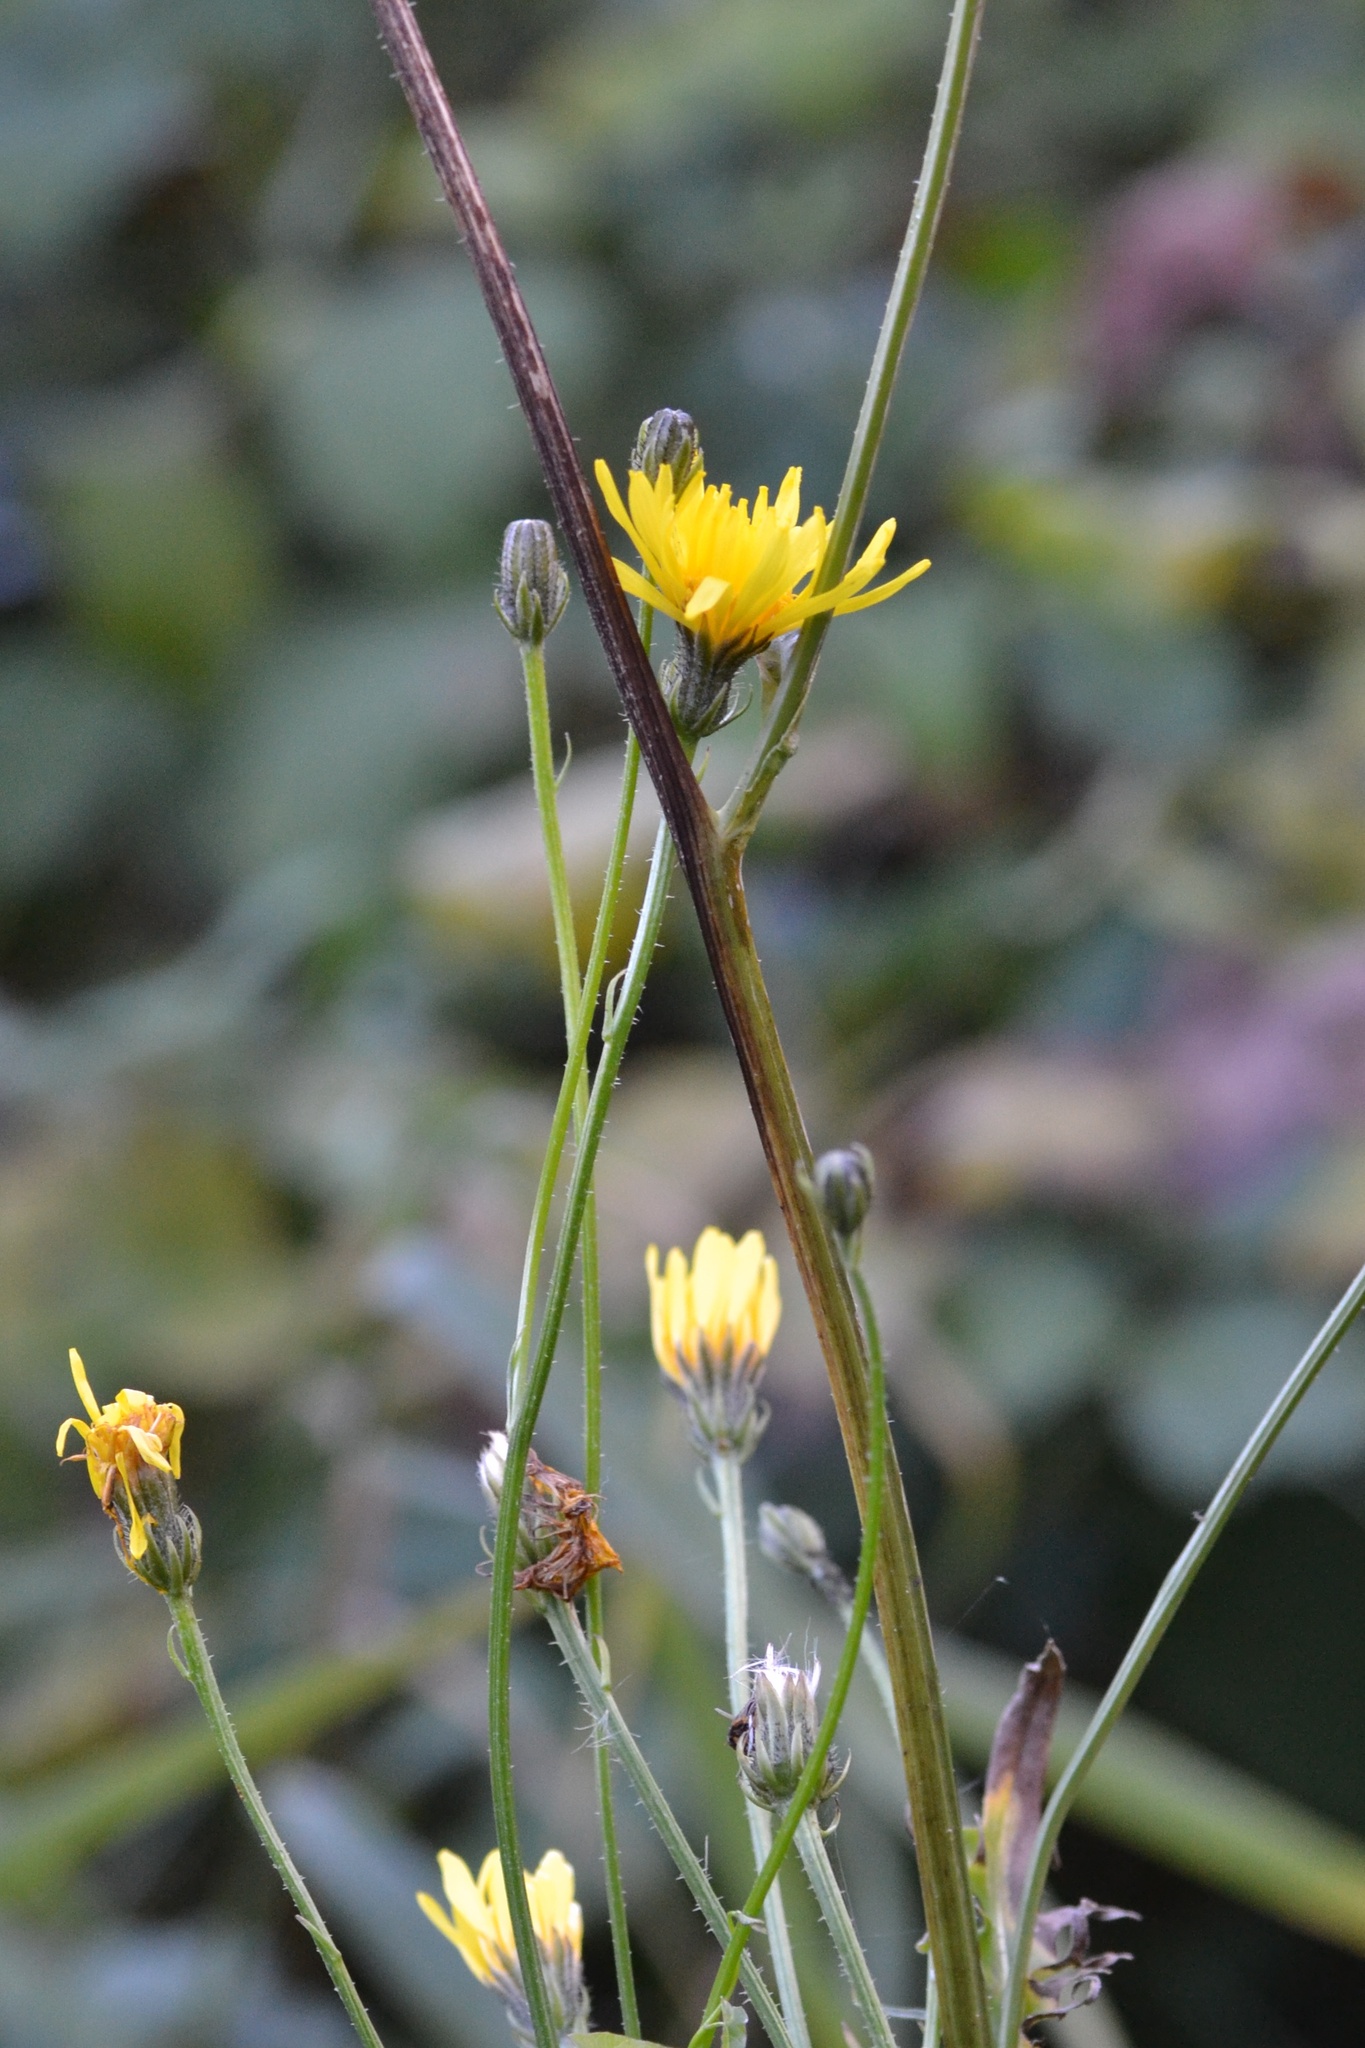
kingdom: Plantae
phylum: Tracheophyta
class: Magnoliopsida
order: Asterales
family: Asteraceae
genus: Crepis
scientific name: Crepis biennis
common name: Rough hawk's-beard
